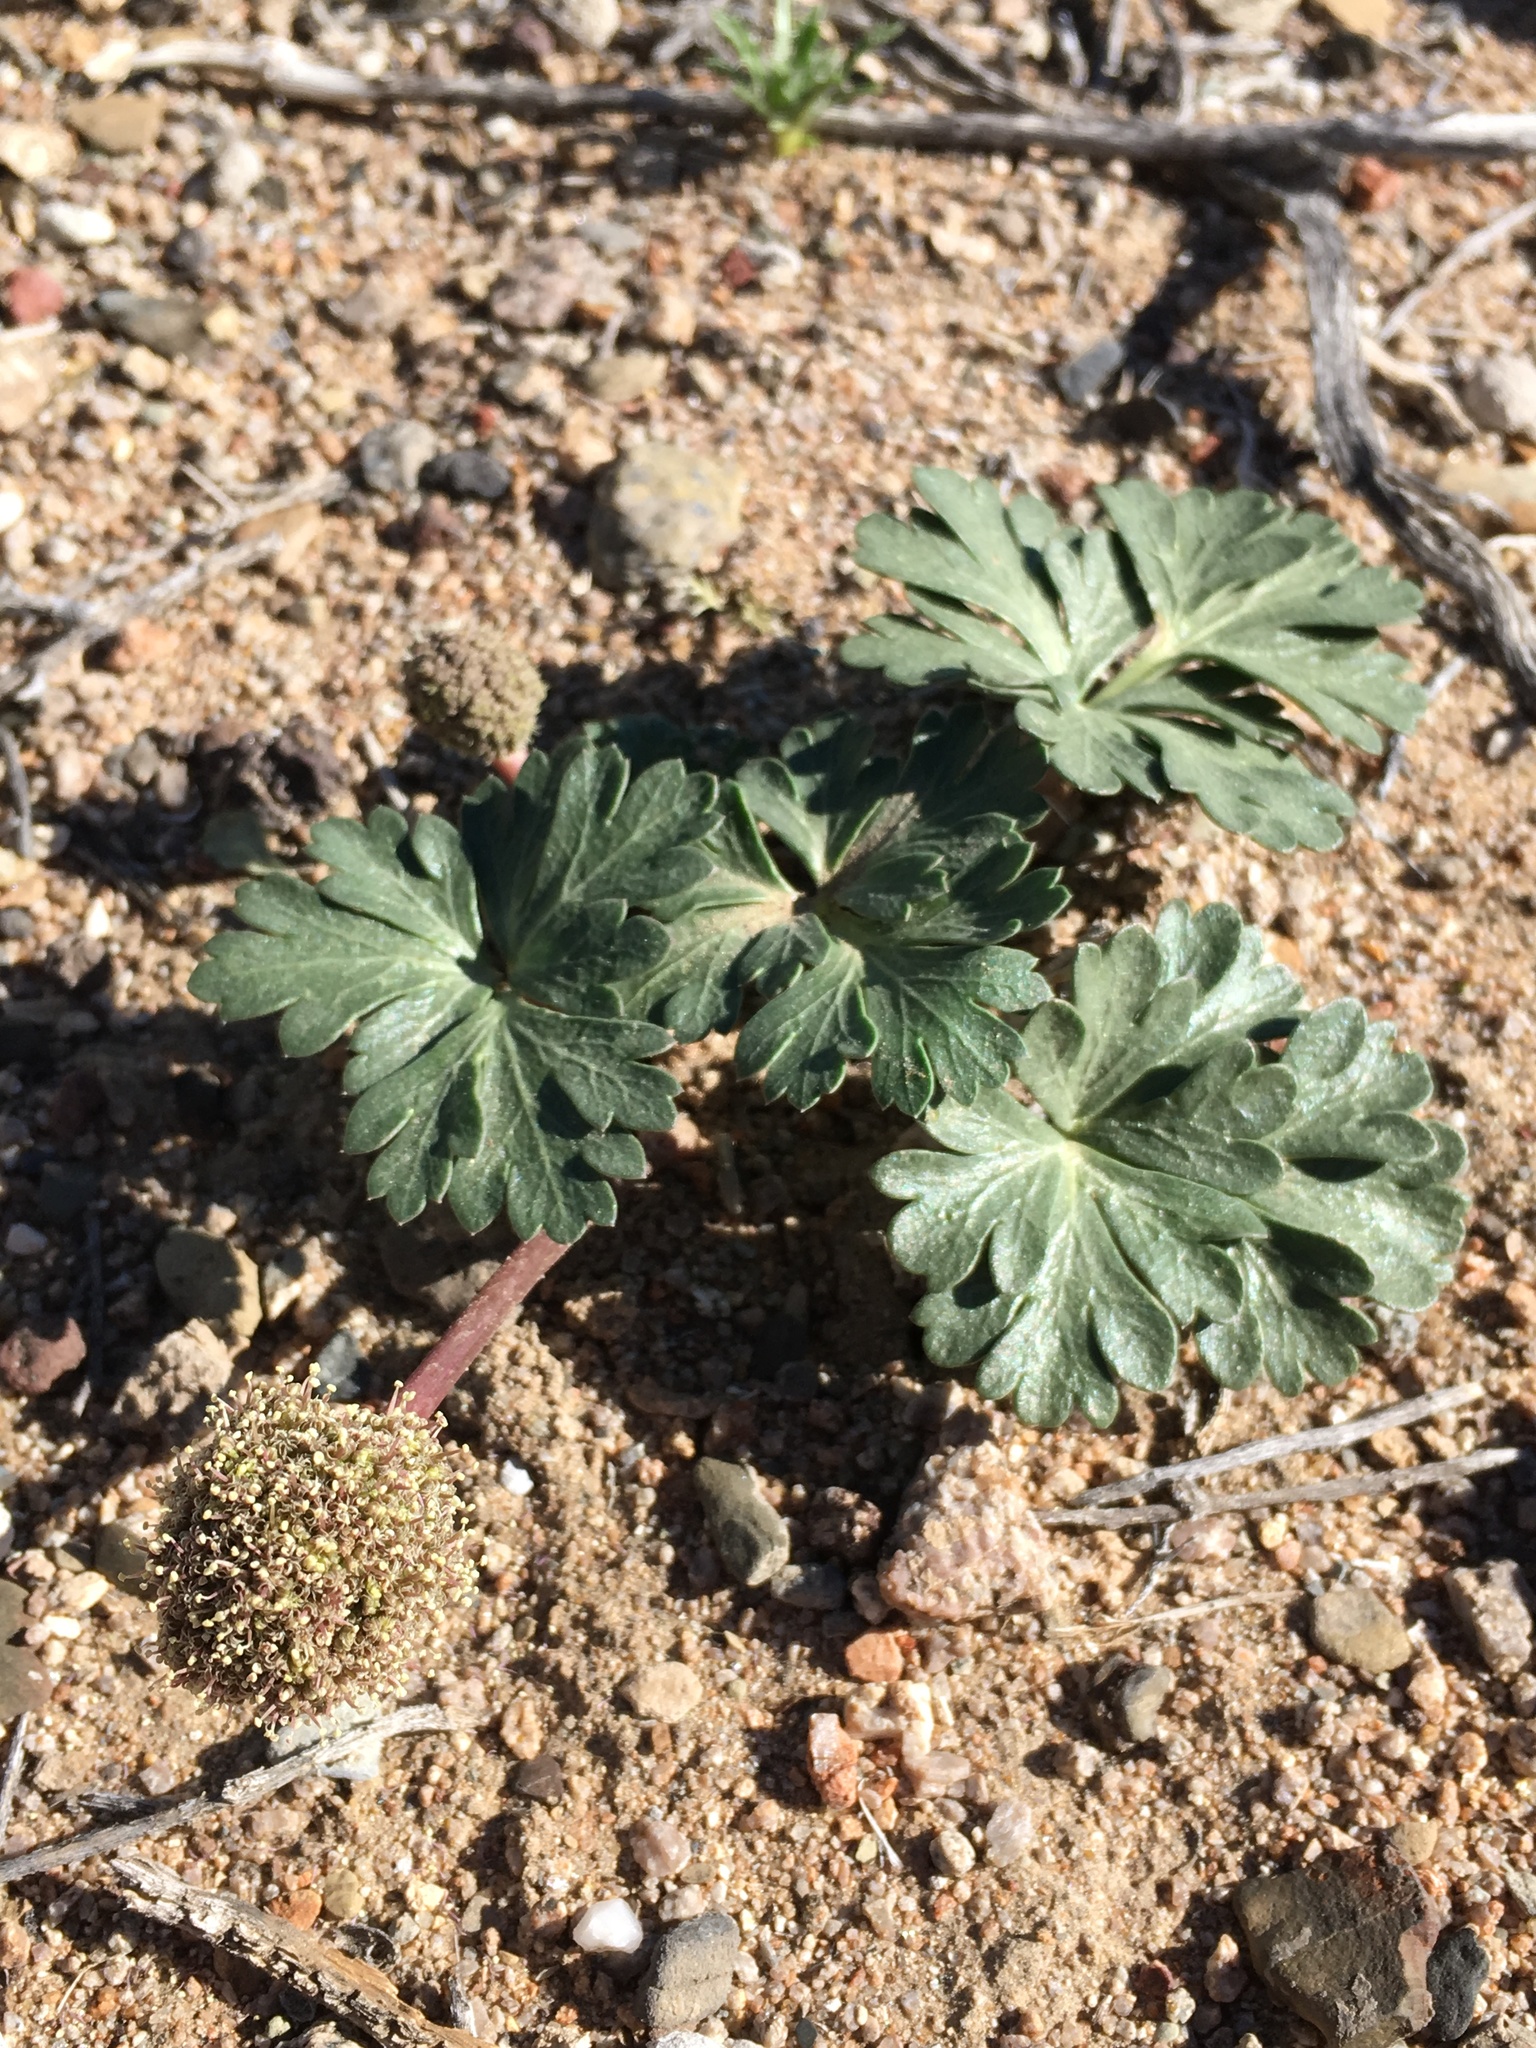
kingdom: Plantae
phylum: Tracheophyta
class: Magnoliopsida
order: Apiales
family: Apiaceae
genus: Cymopterus
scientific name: Cymopterus ripleyi
